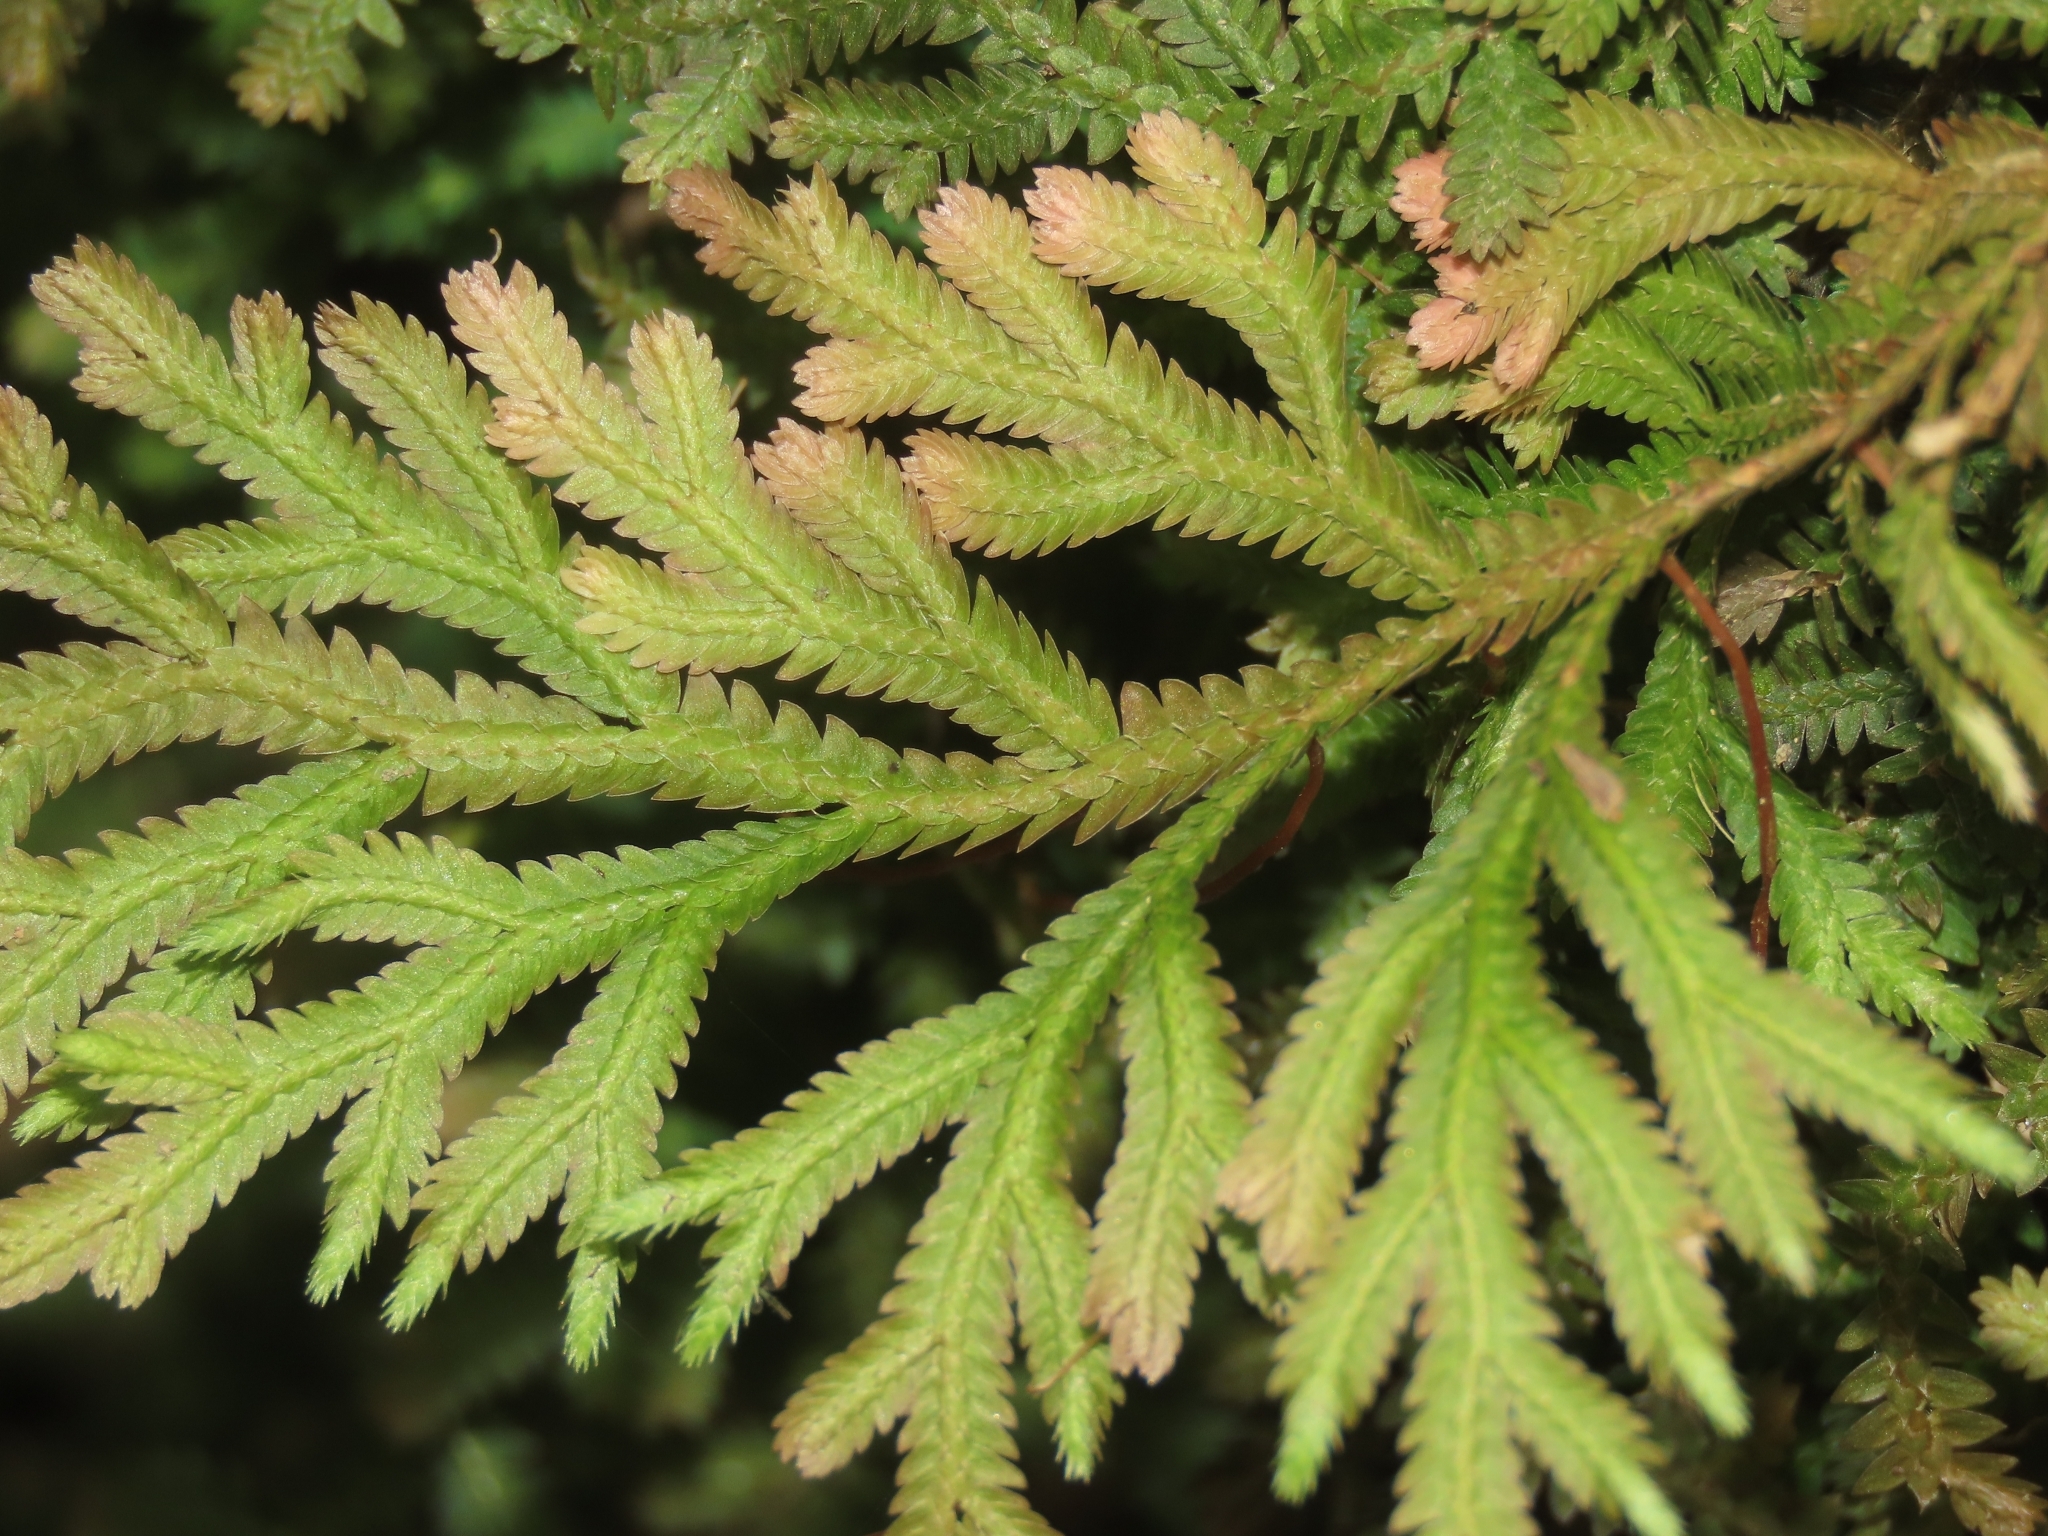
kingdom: Plantae
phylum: Tracheophyta
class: Lycopodiopsida
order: Selaginellales
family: Selaginellaceae
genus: Selaginella
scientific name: Selaginella repanda
